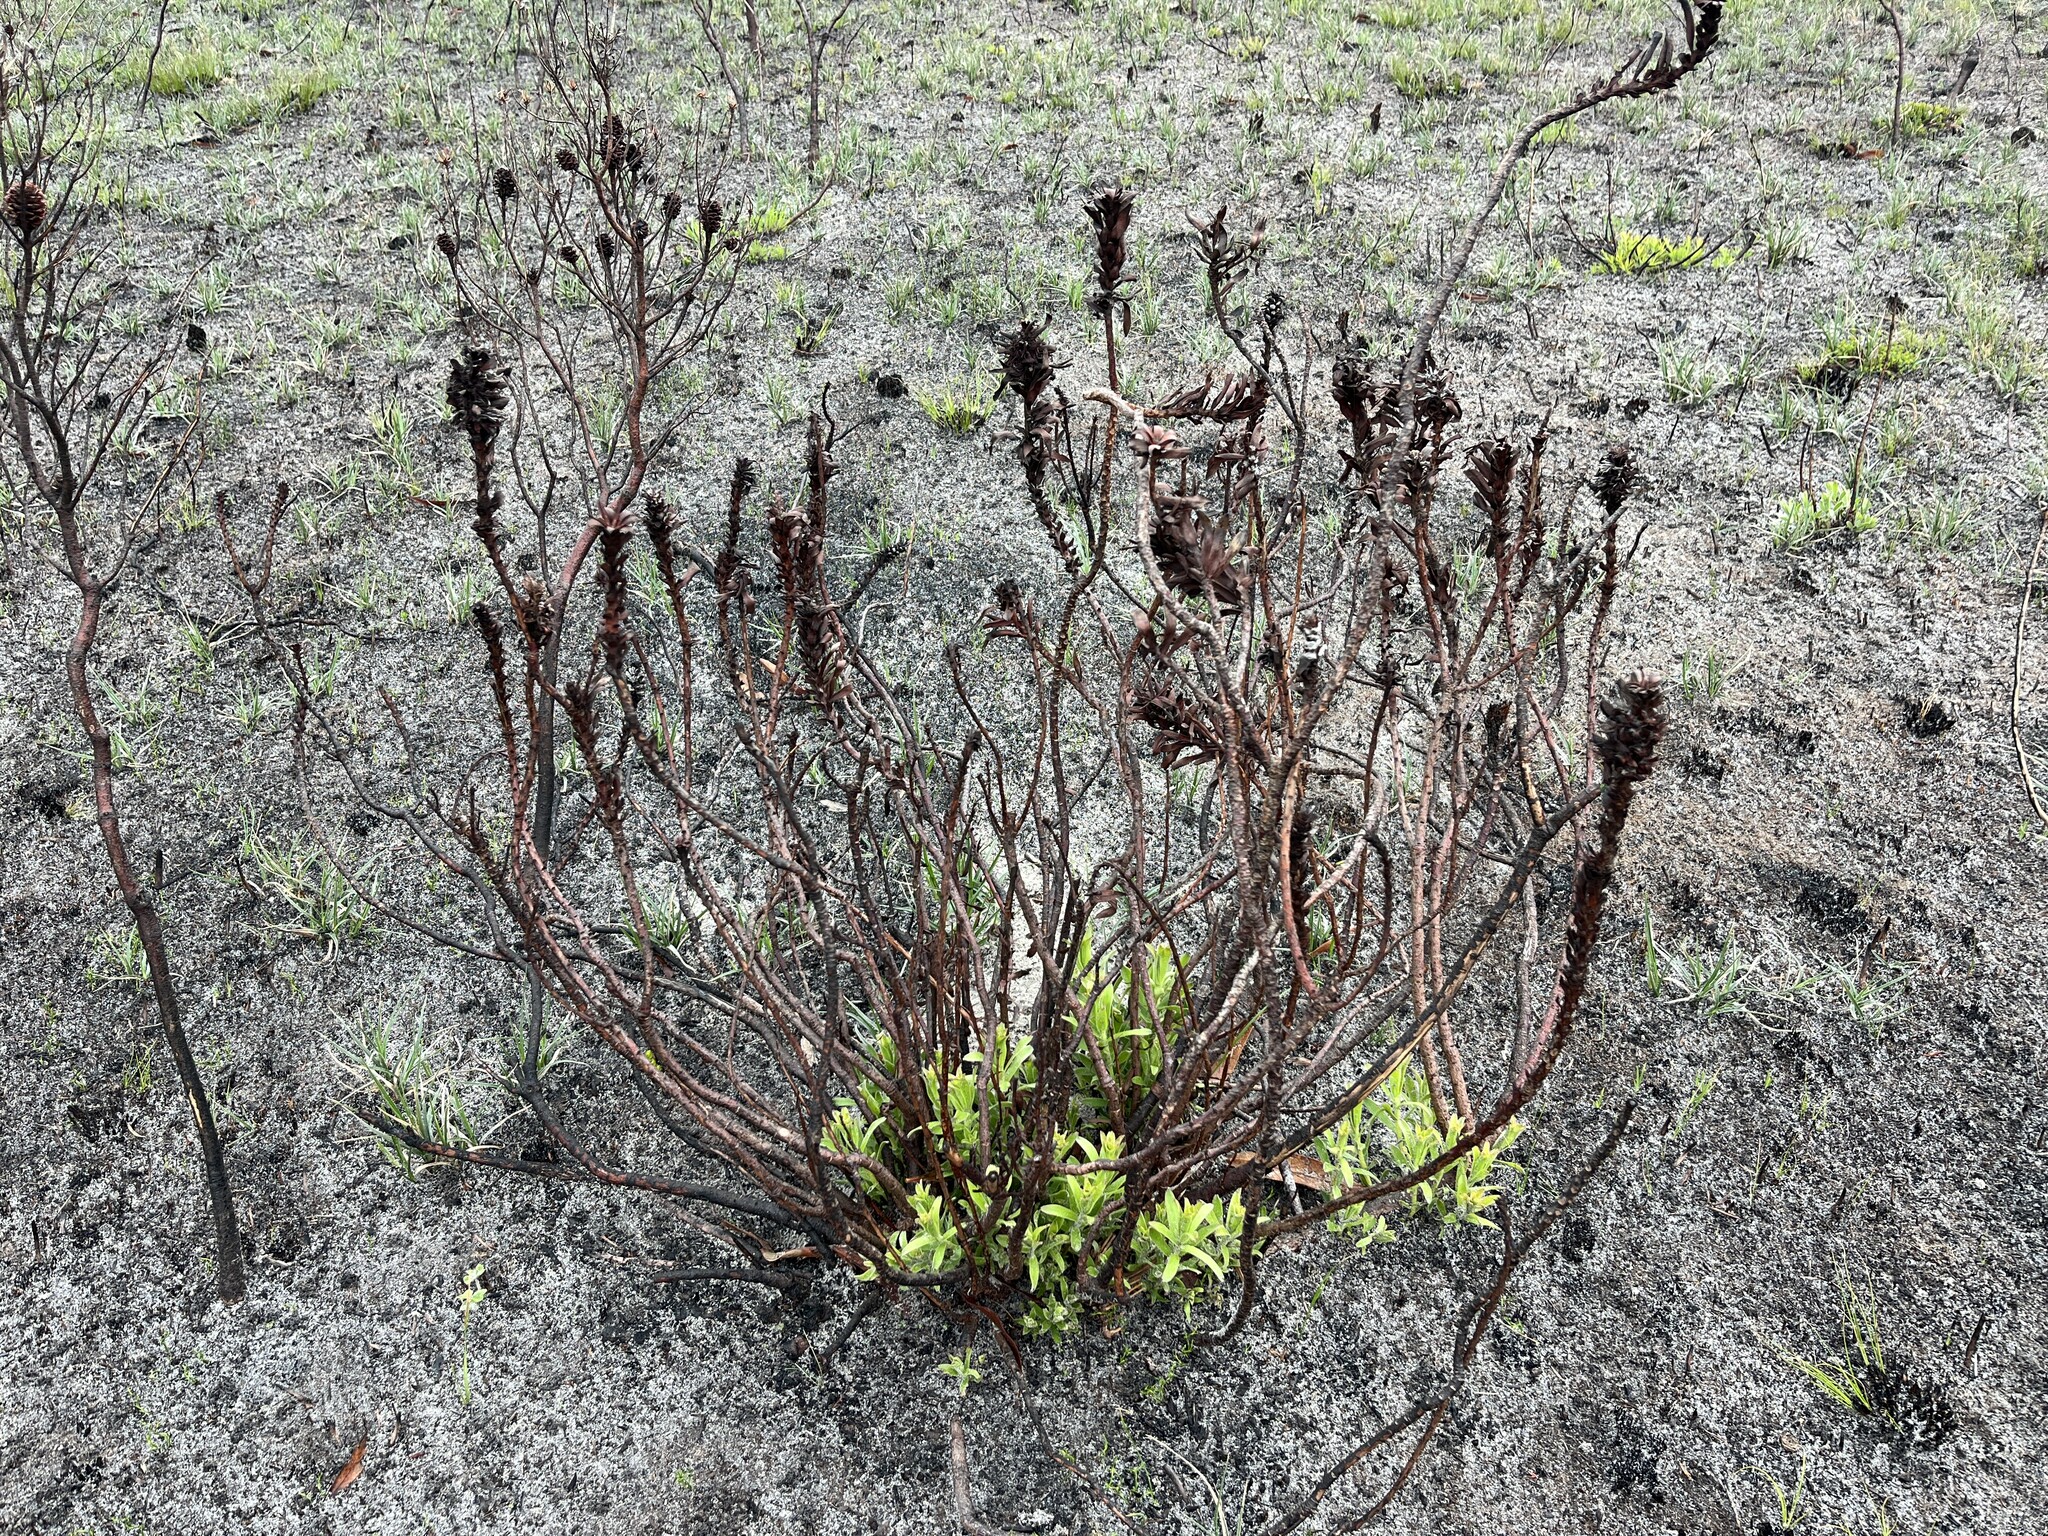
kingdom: Plantae
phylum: Tracheophyta
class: Magnoliopsida
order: Proteales
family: Proteaceae
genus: Mimetes
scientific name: Mimetes cucullatus
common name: Common pagoda
